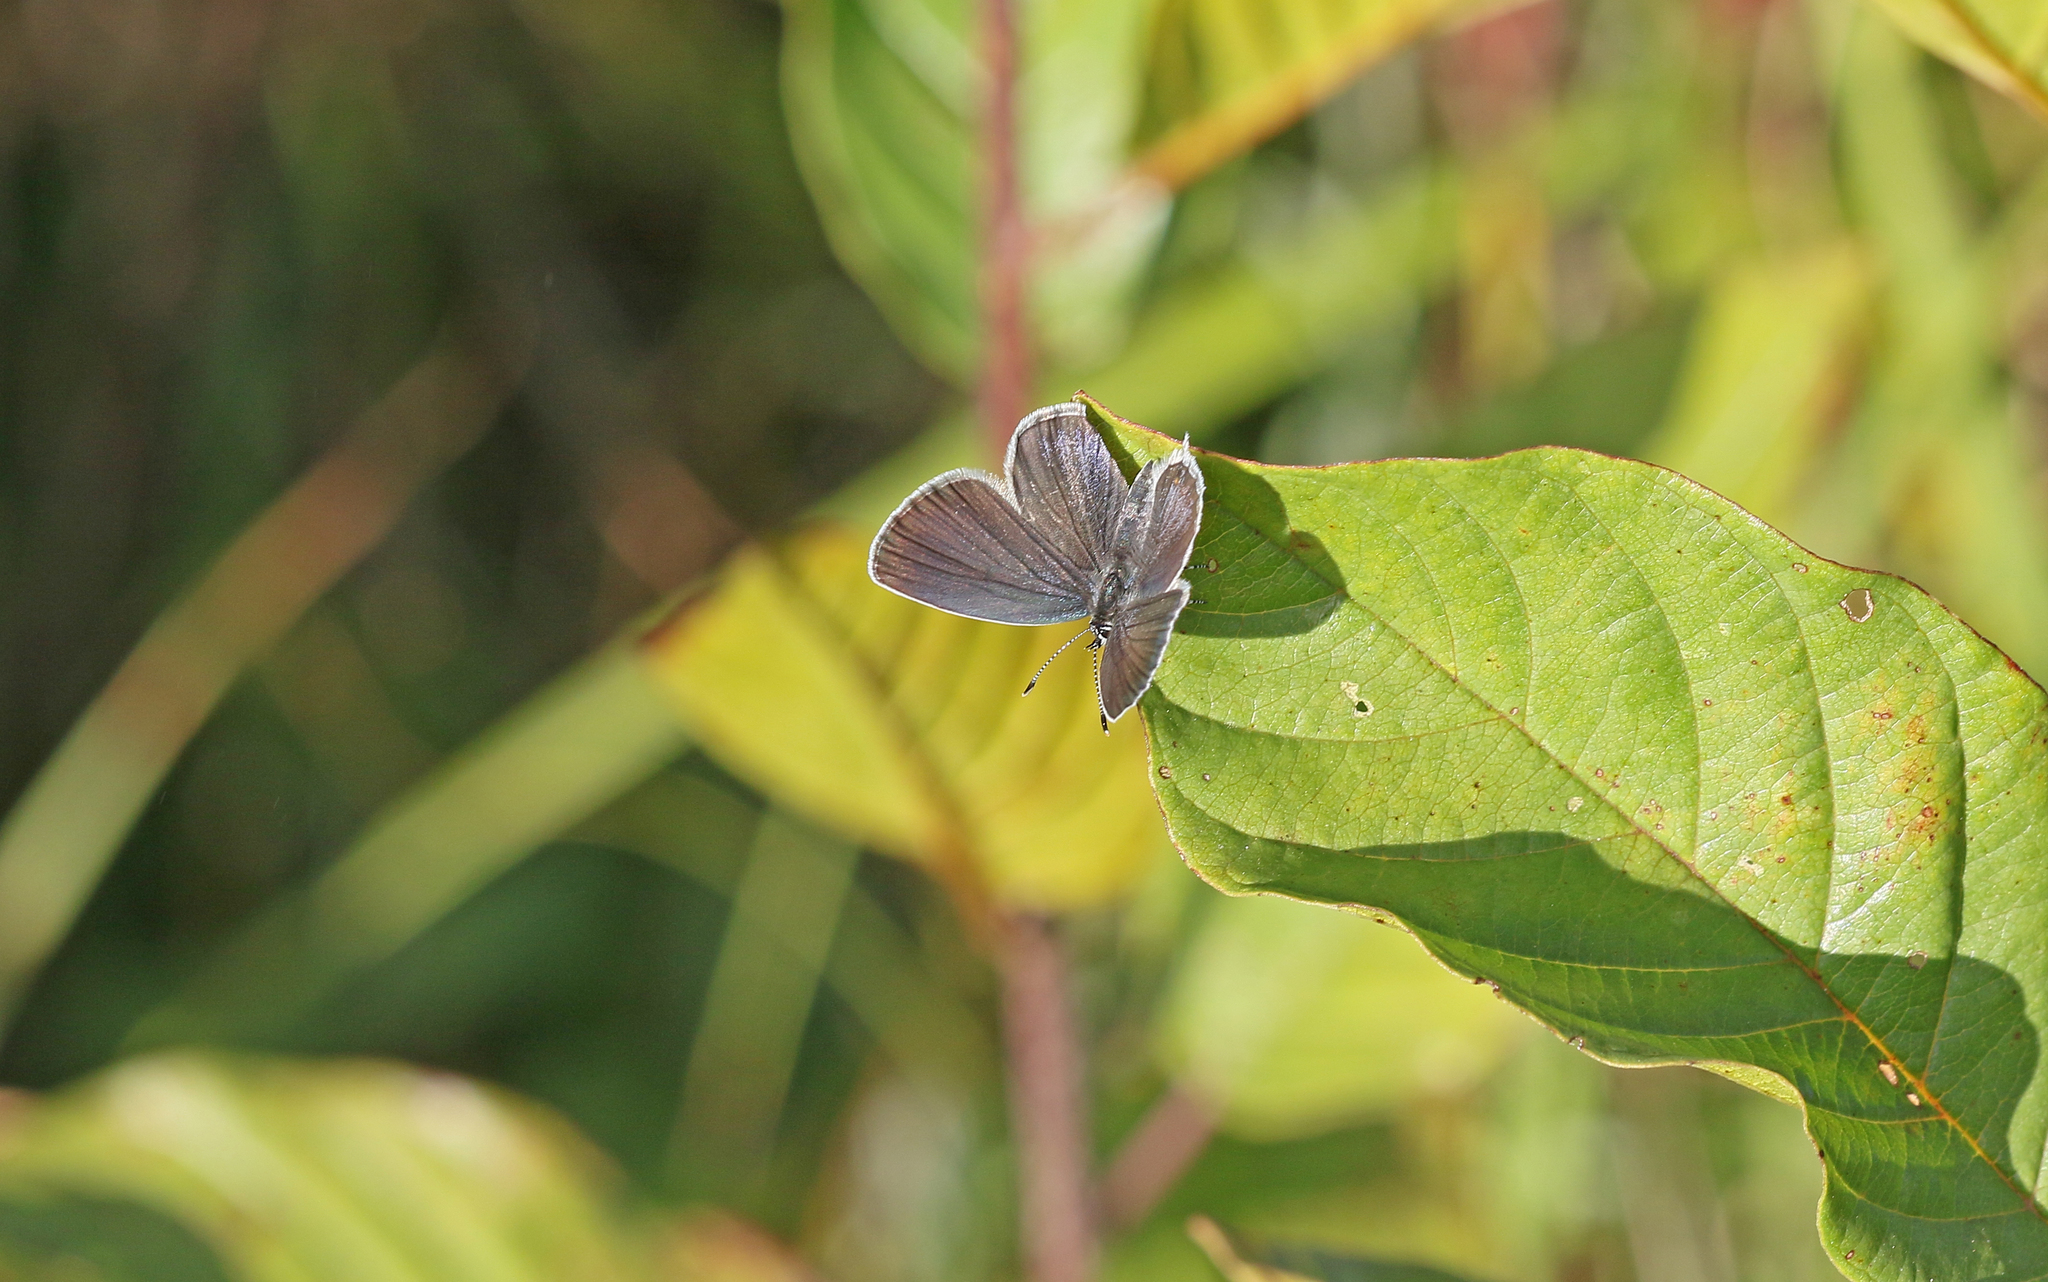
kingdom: Animalia
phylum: Arthropoda
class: Insecta
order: Lepidoptera
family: Lycaenidae
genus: Elkalyce
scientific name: Elkalyce argiades
